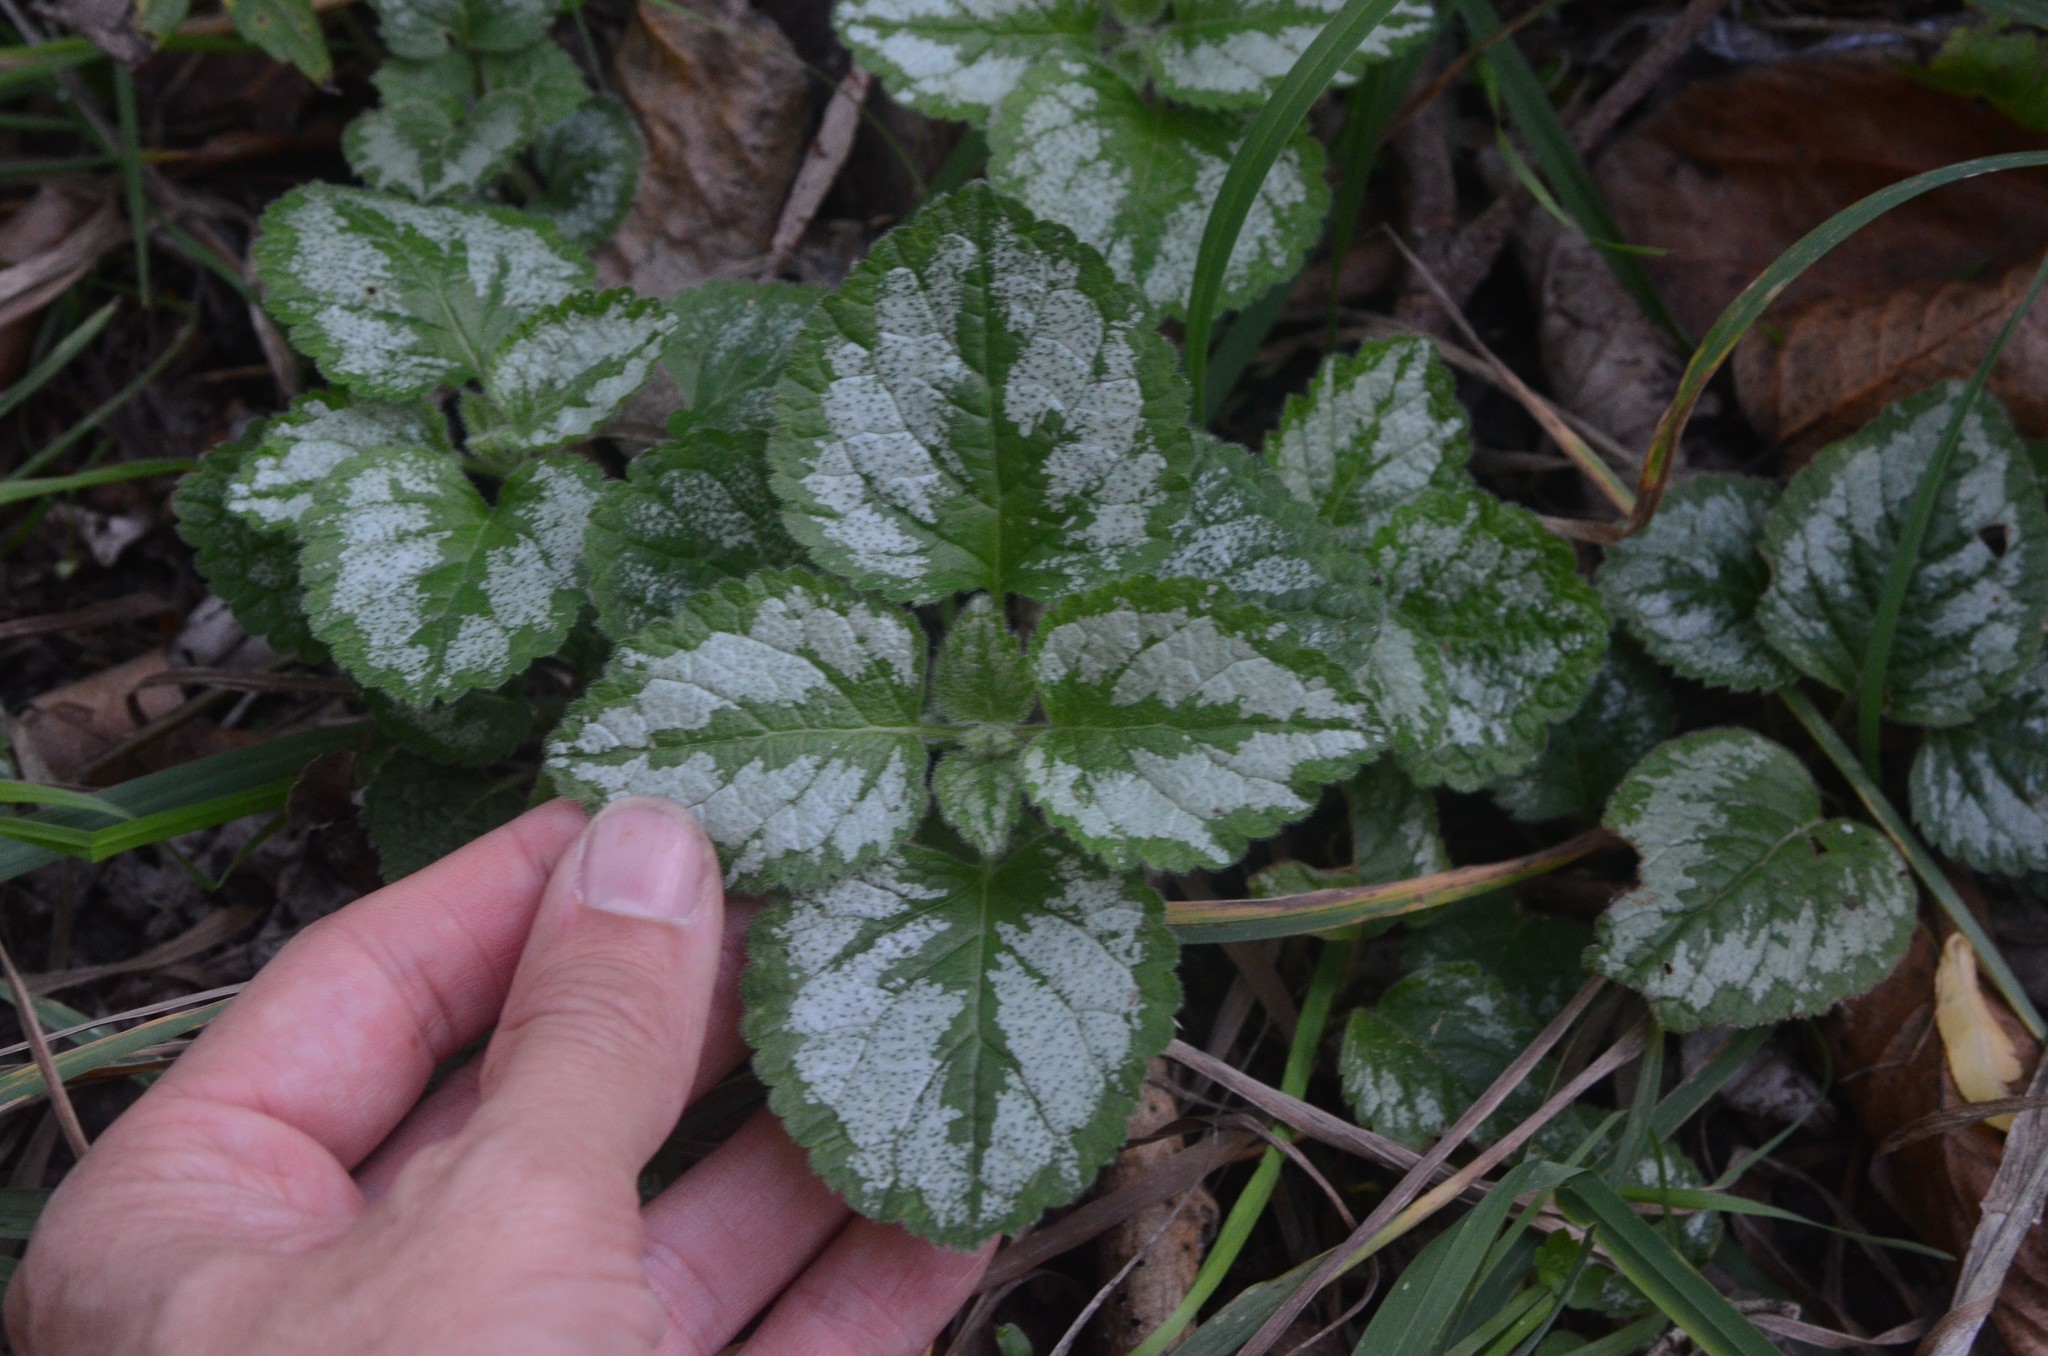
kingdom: Plantae
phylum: Tracheophyta
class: Magnoliopsida
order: Lamiales
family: Lamiaceae
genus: Lamium
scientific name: Lamium galeobdolon
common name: Yellow archangel
